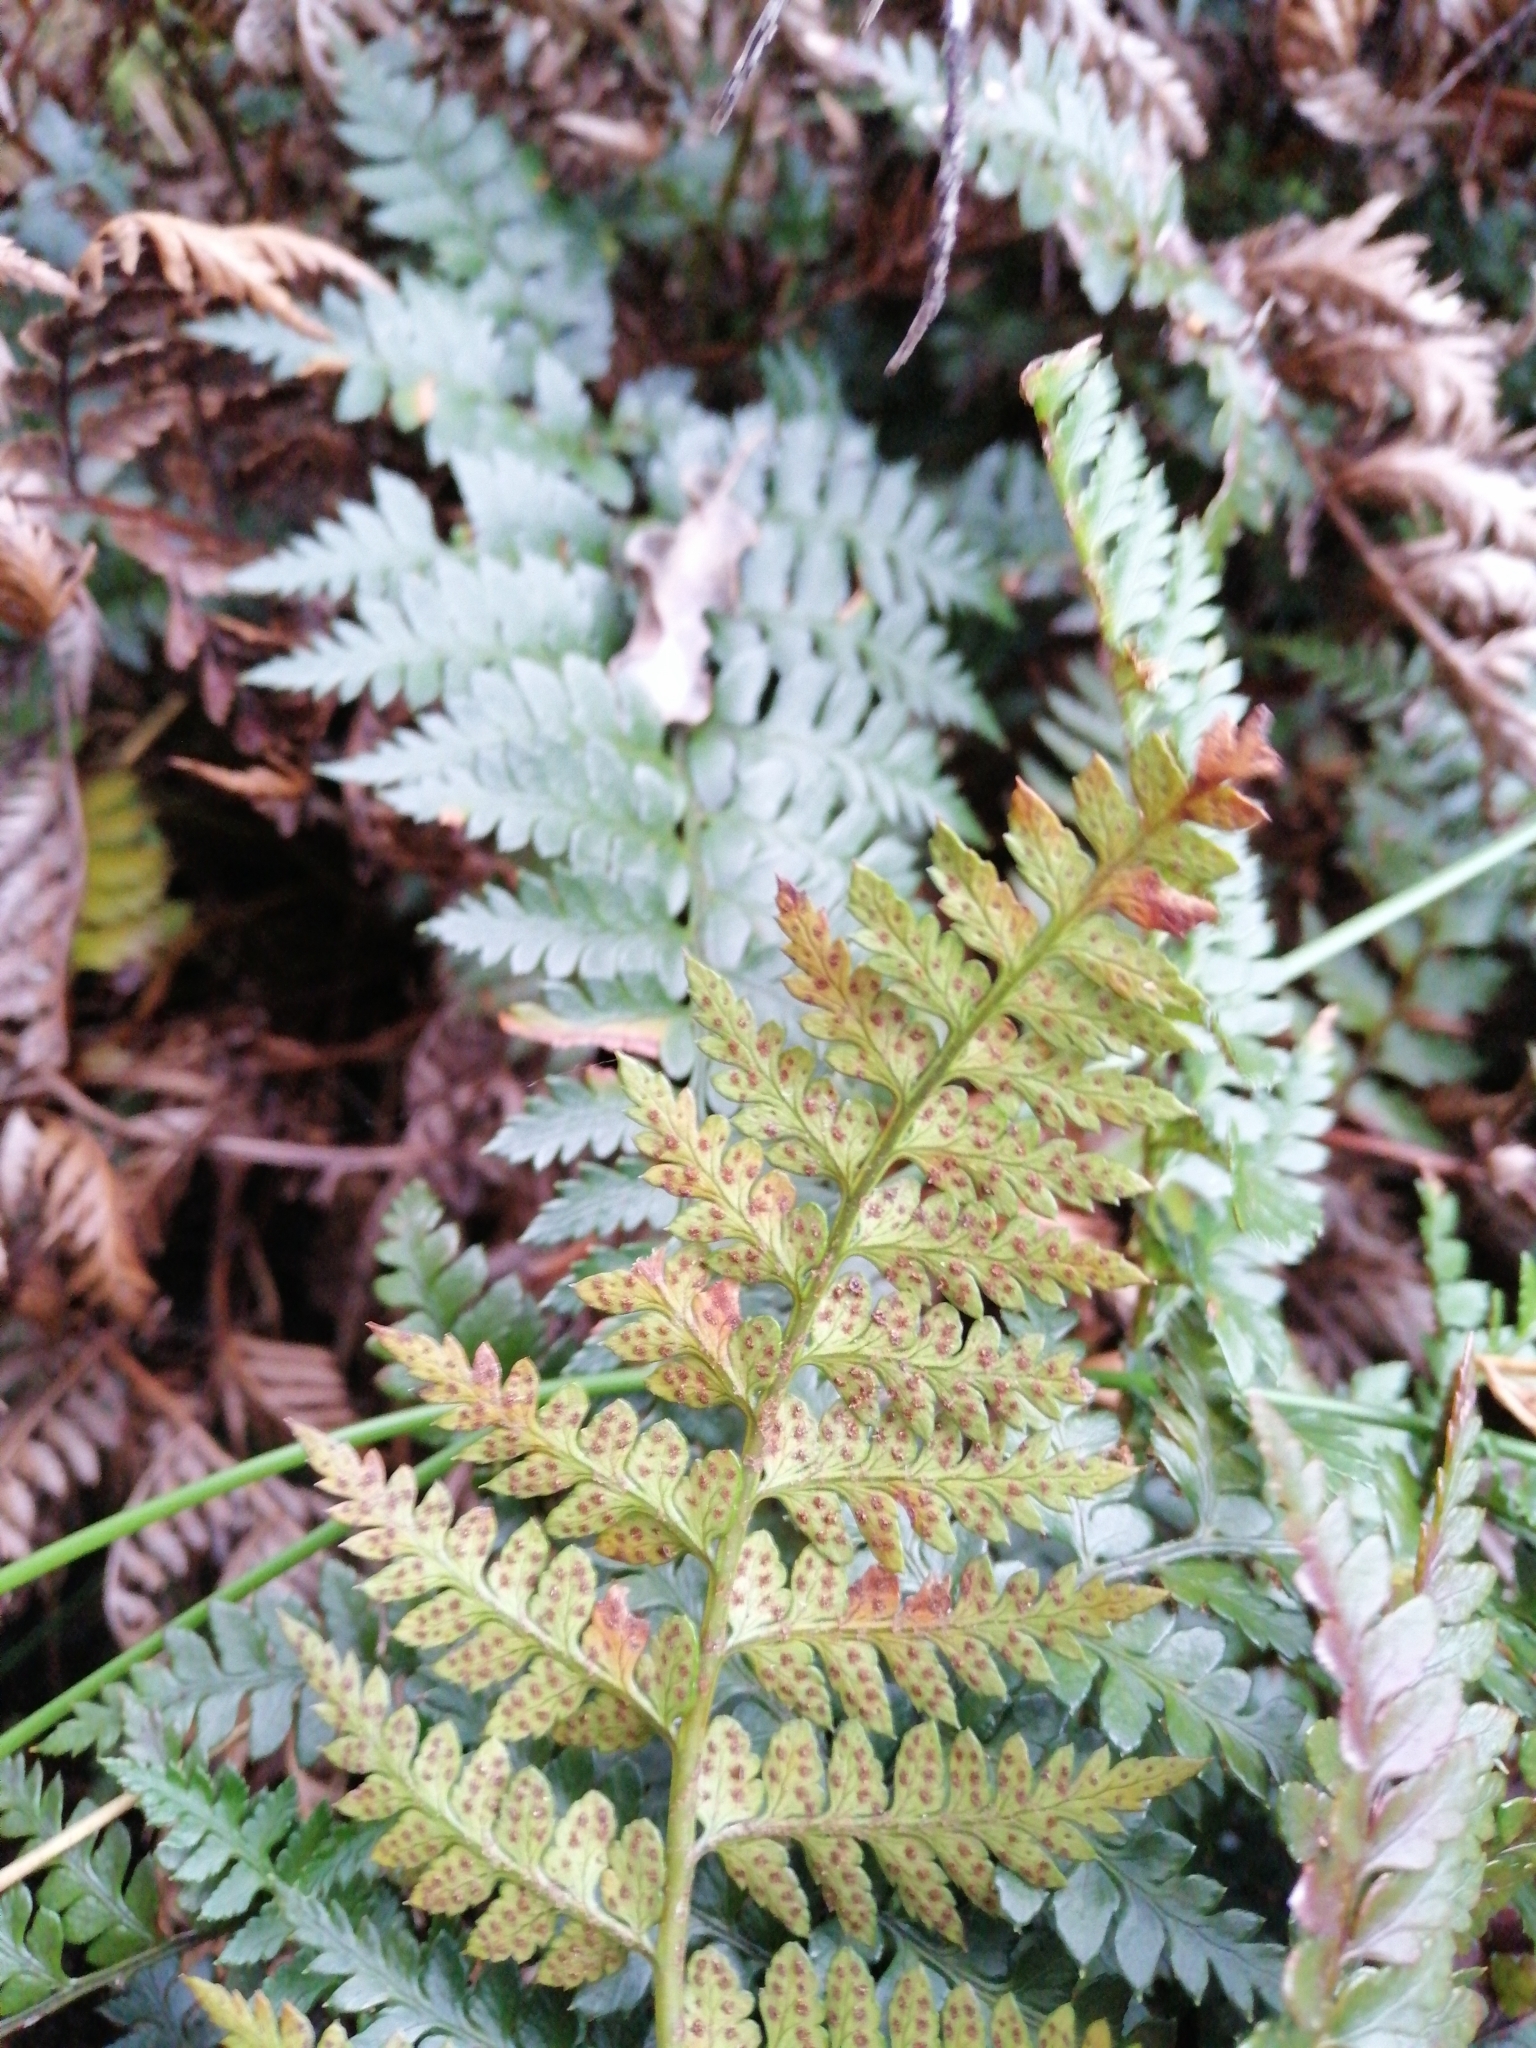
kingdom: Plantae
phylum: Tracheophyta
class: Polypodiopsida
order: Polypodiales
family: Dryopteridaceae
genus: Polystichum
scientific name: Polystichum oculatum
